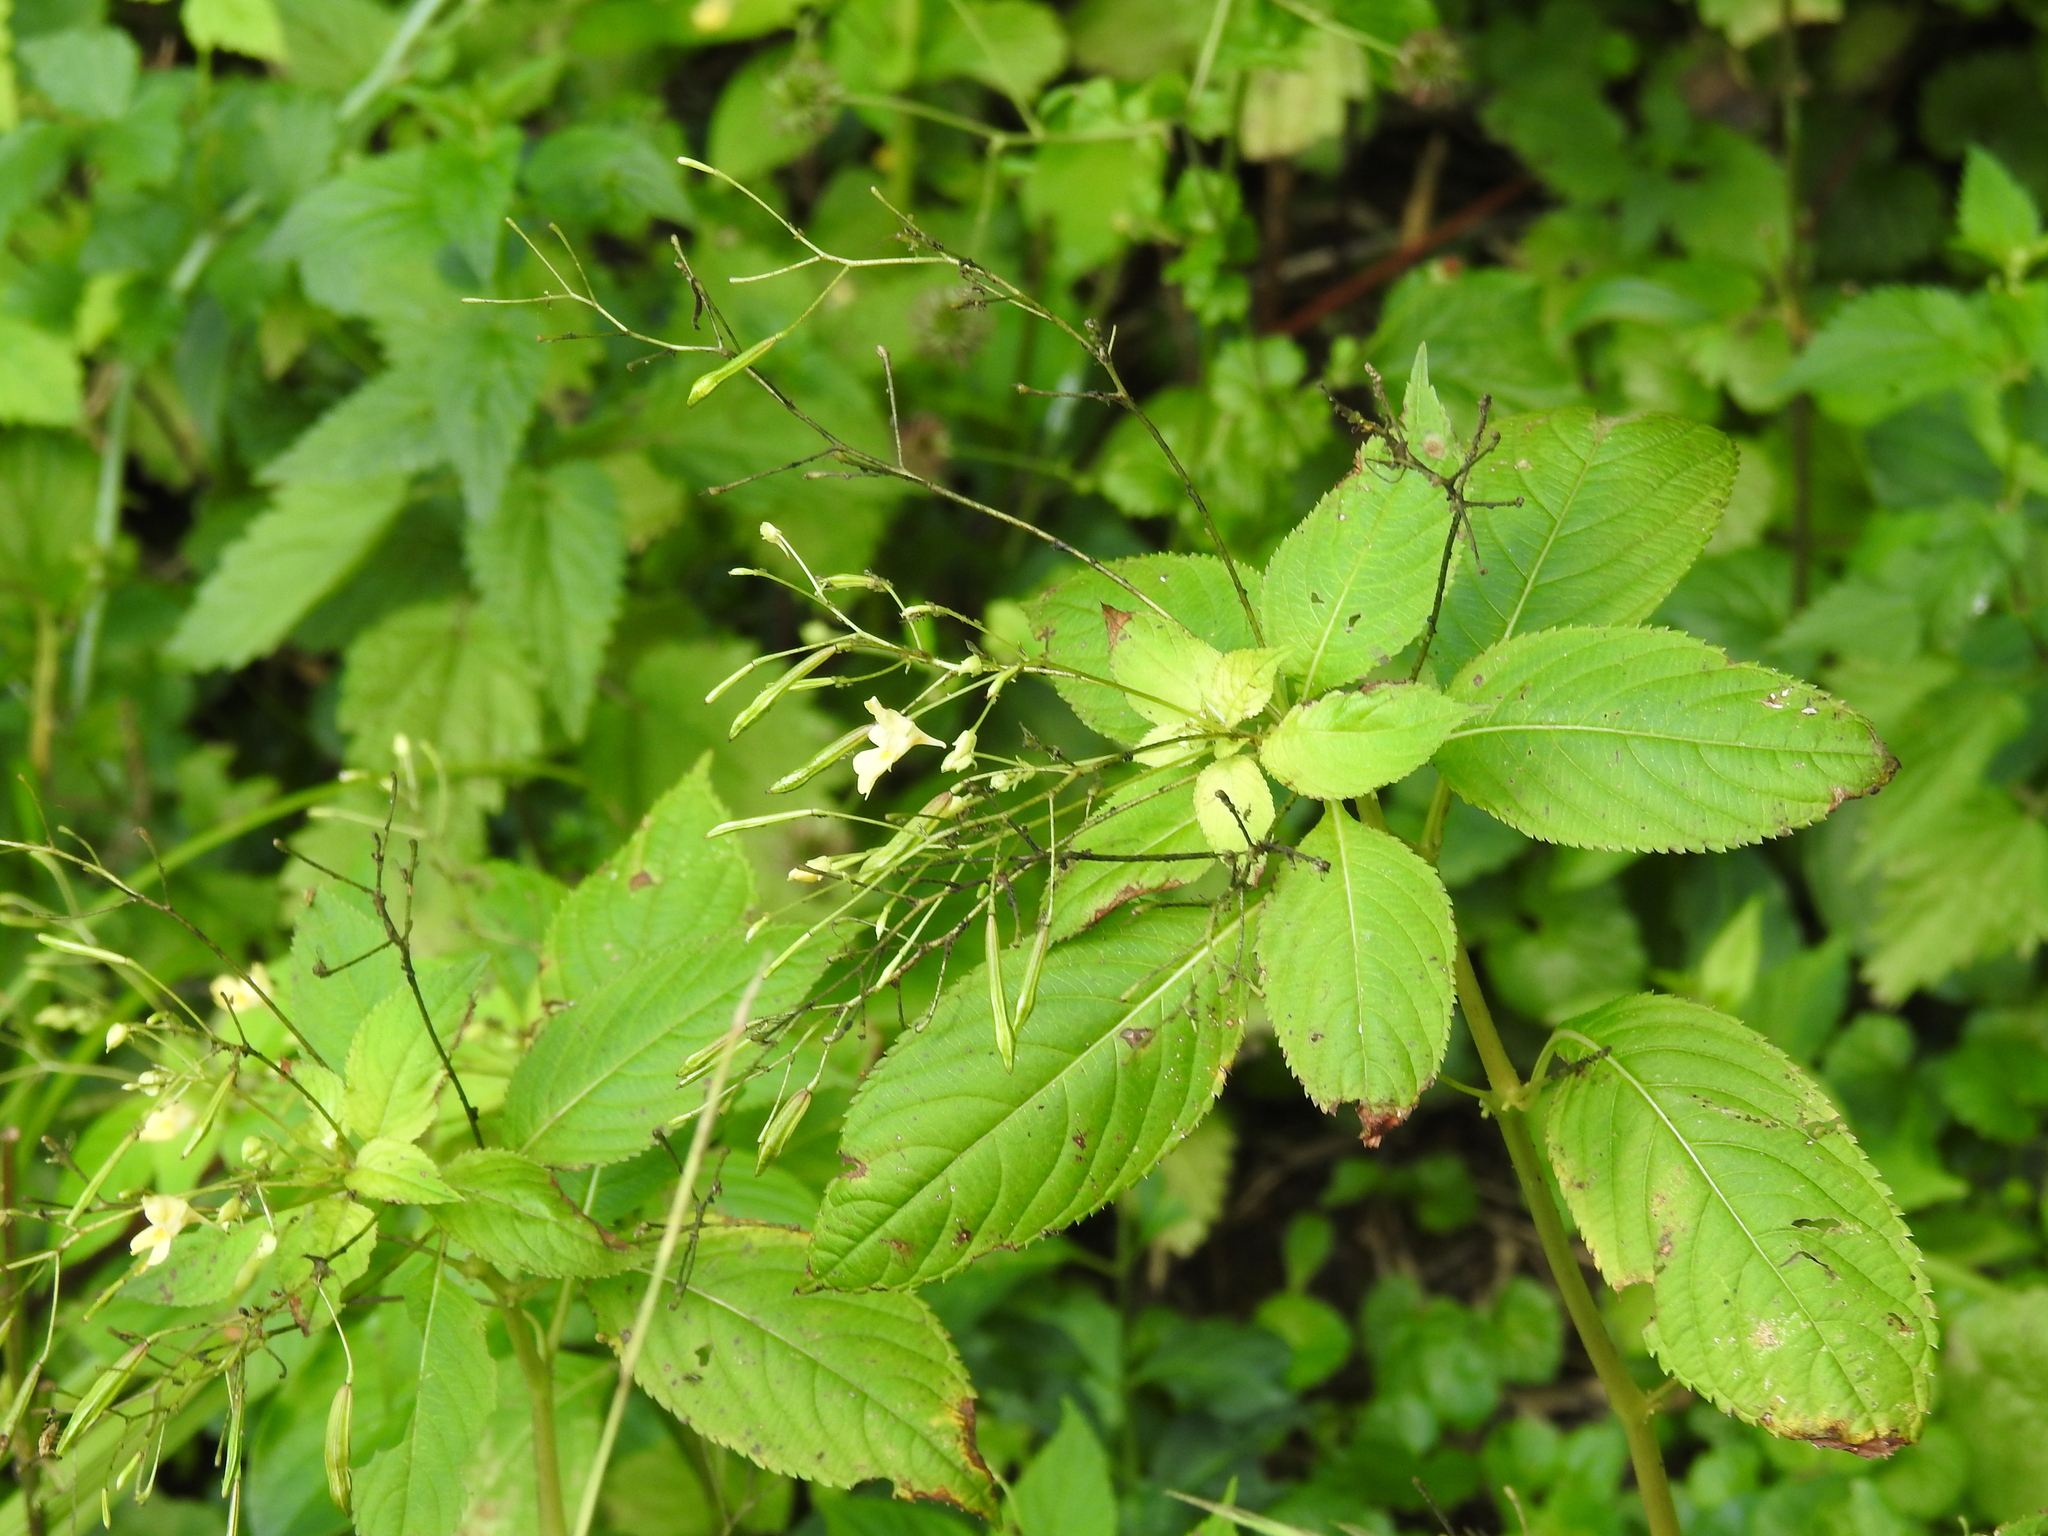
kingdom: Plantae
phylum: Tracheophyta
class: Magnoliopsida
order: Ericales
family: Balsaminaceae
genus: Impatiens
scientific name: Impatiens parviflora
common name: Small balsam
